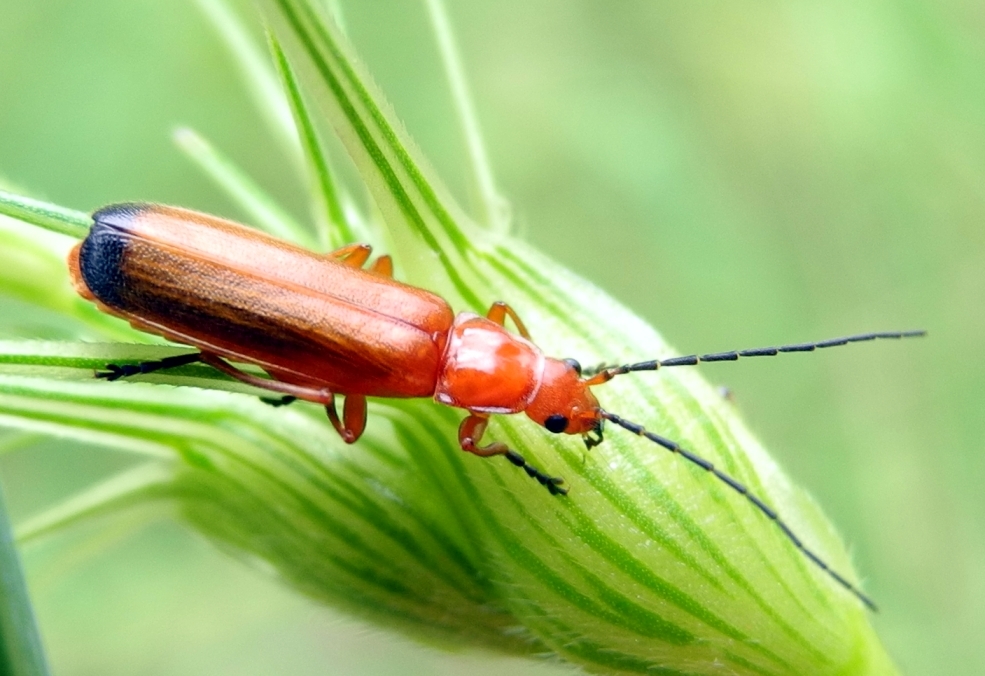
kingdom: Animalia
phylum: Arthropoda
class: Insecta
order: Coleoptera
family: Cantharidae
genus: Rhagonycha
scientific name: Rhagonycha fulva
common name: Common red soldier beetle
